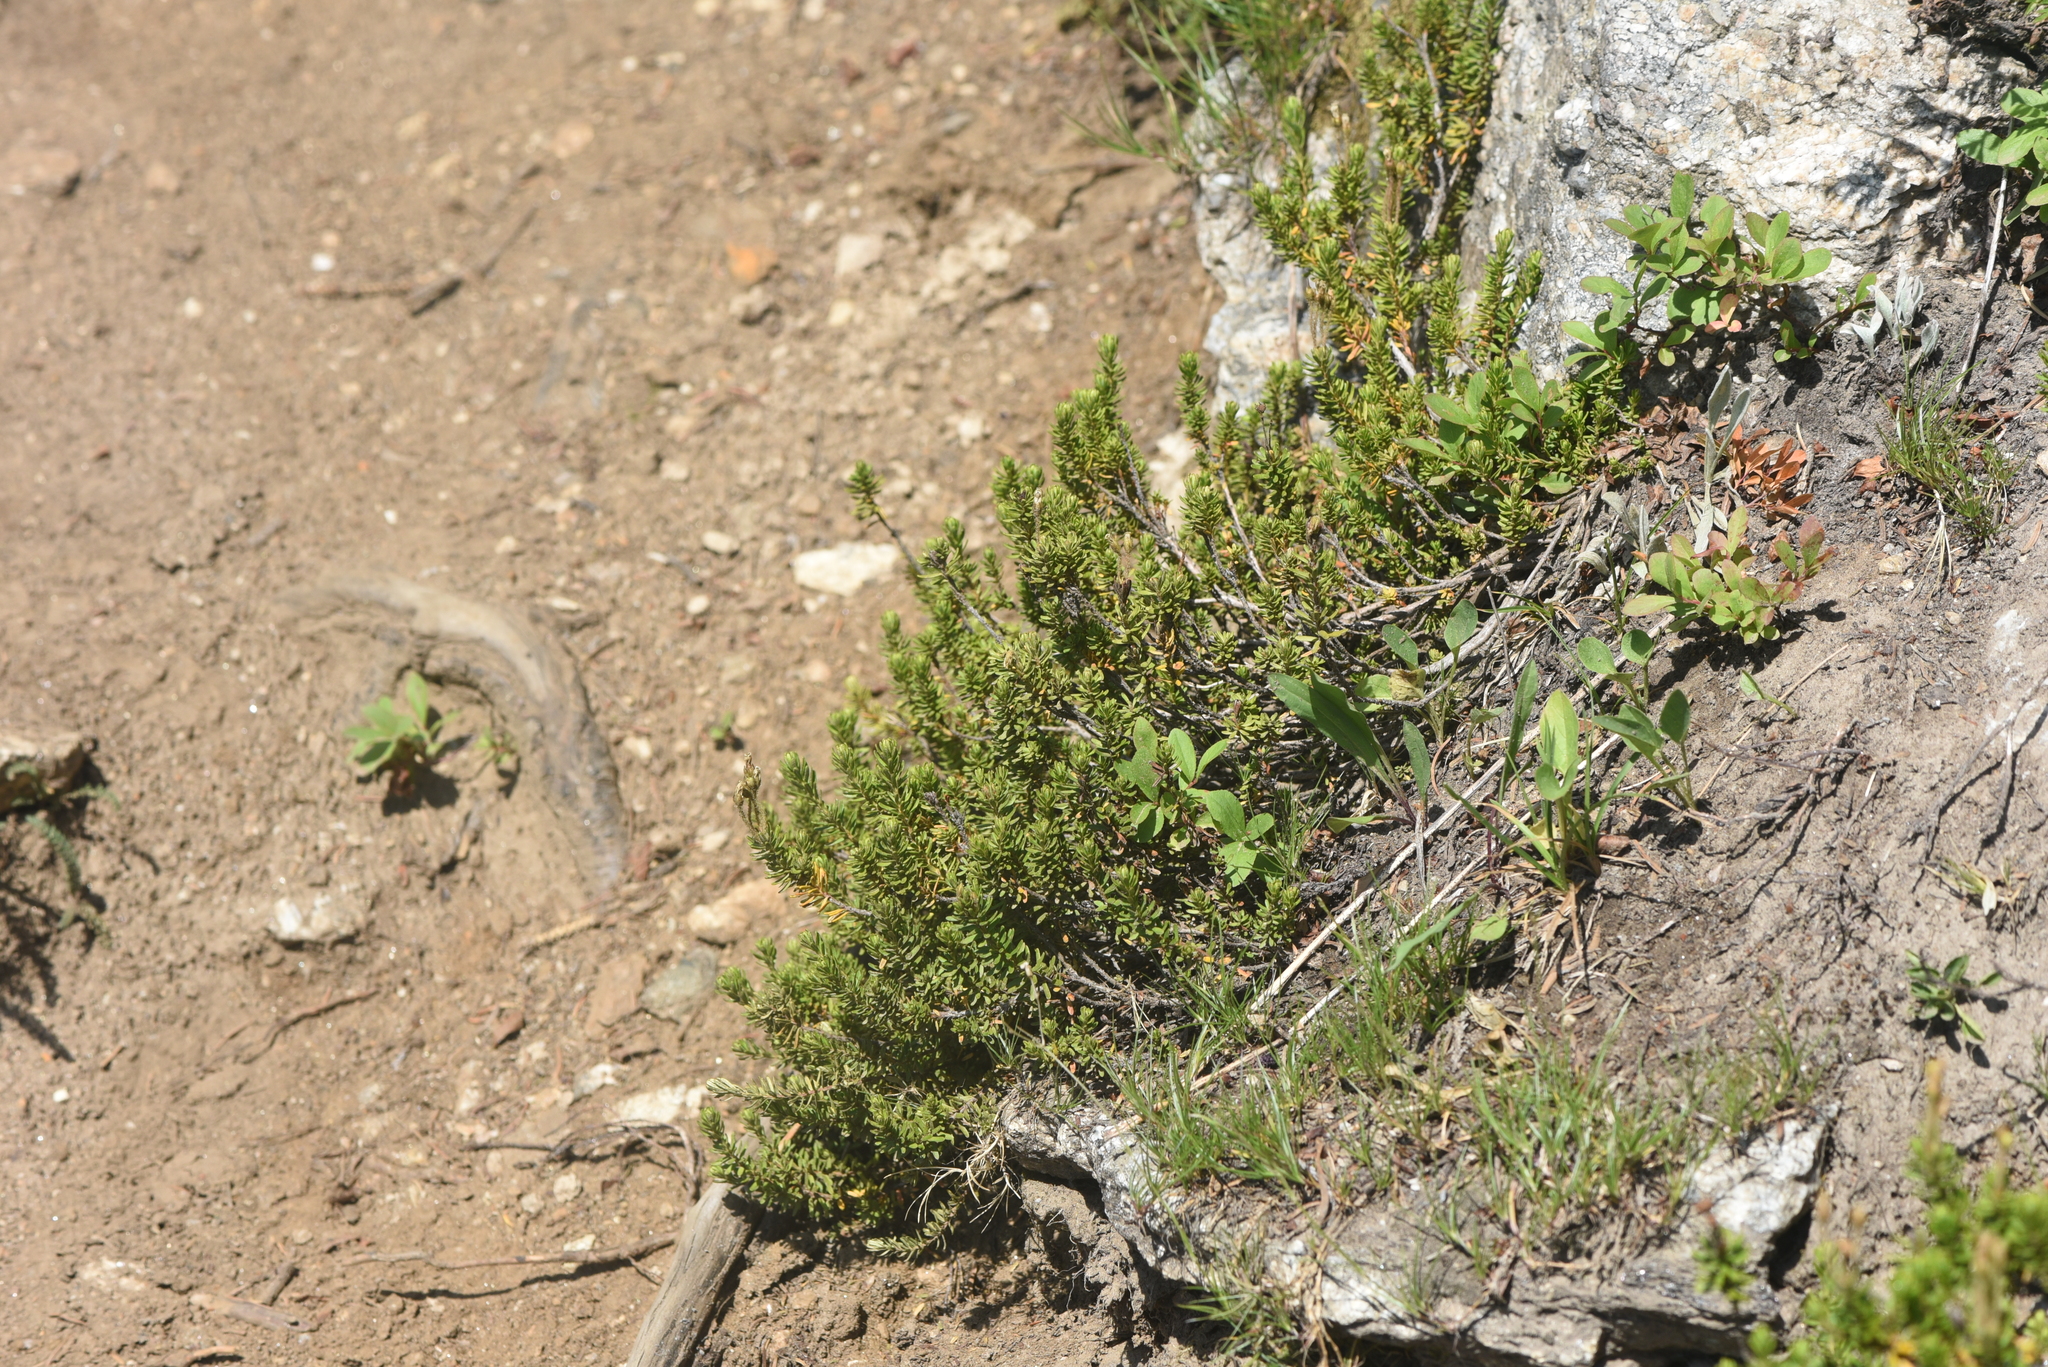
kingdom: Plantae
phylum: Tracheophyta
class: Magnoliopsida
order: Ericales
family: Ericaceae
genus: Phyllodoce
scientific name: Phyllodoce glanduliflora
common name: Cream mountain heather
